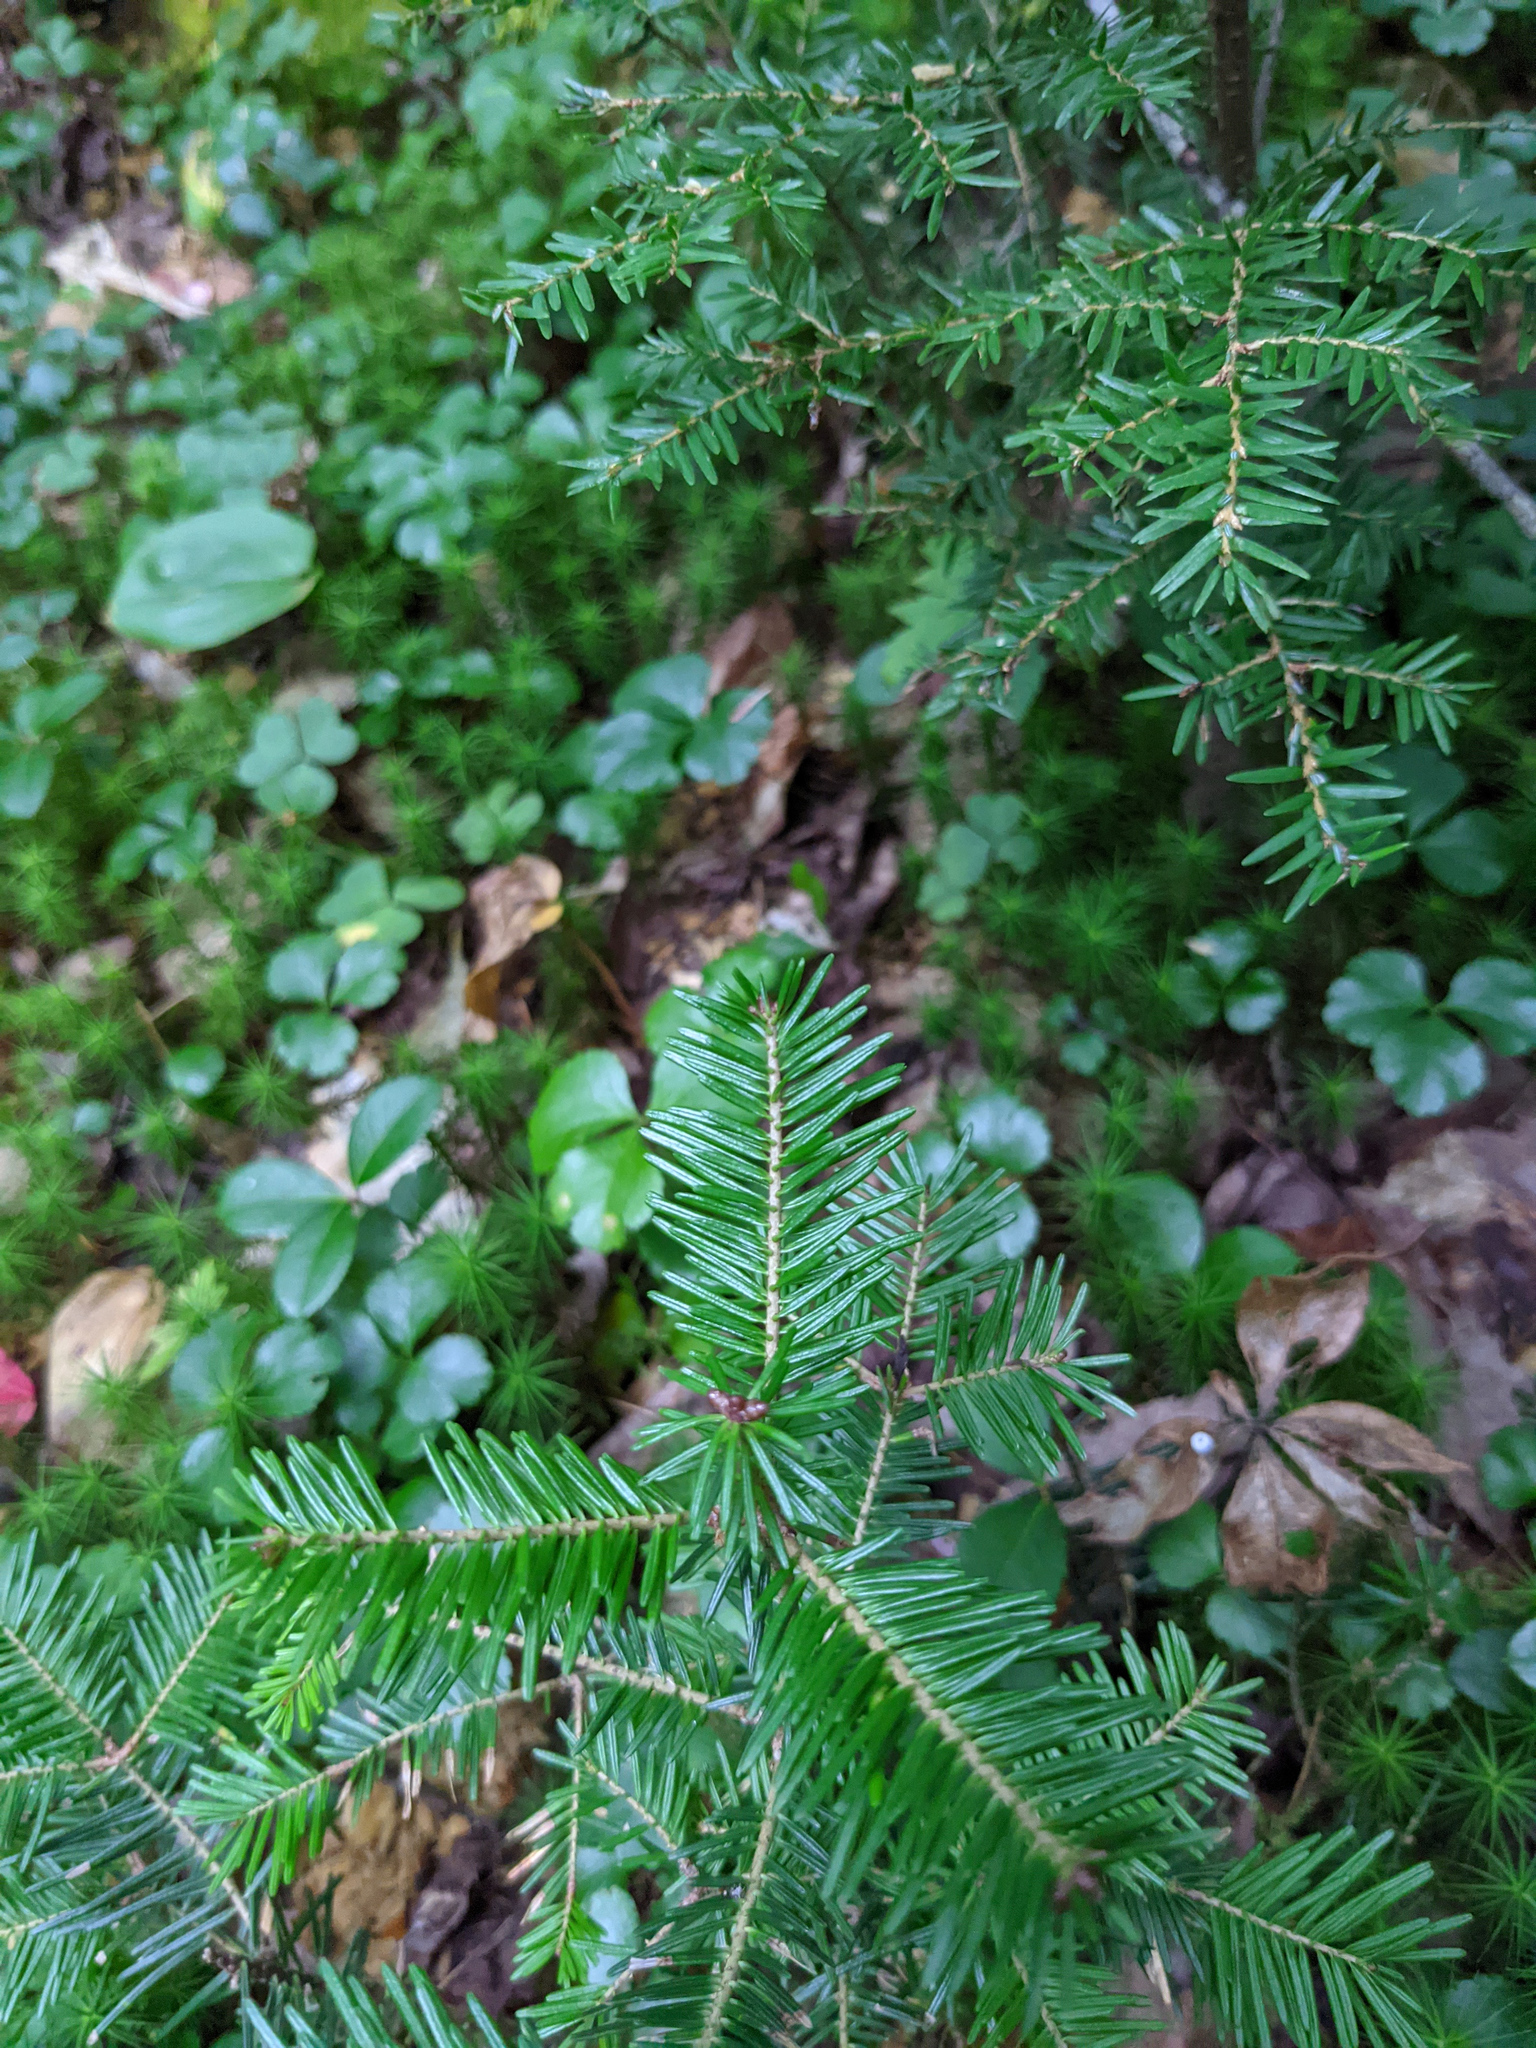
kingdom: Plantae
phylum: Tracheophyta
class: Pinopsida
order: Pinales
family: Pinaceae
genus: Abies
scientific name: Abies balsamea
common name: Balsam fir
